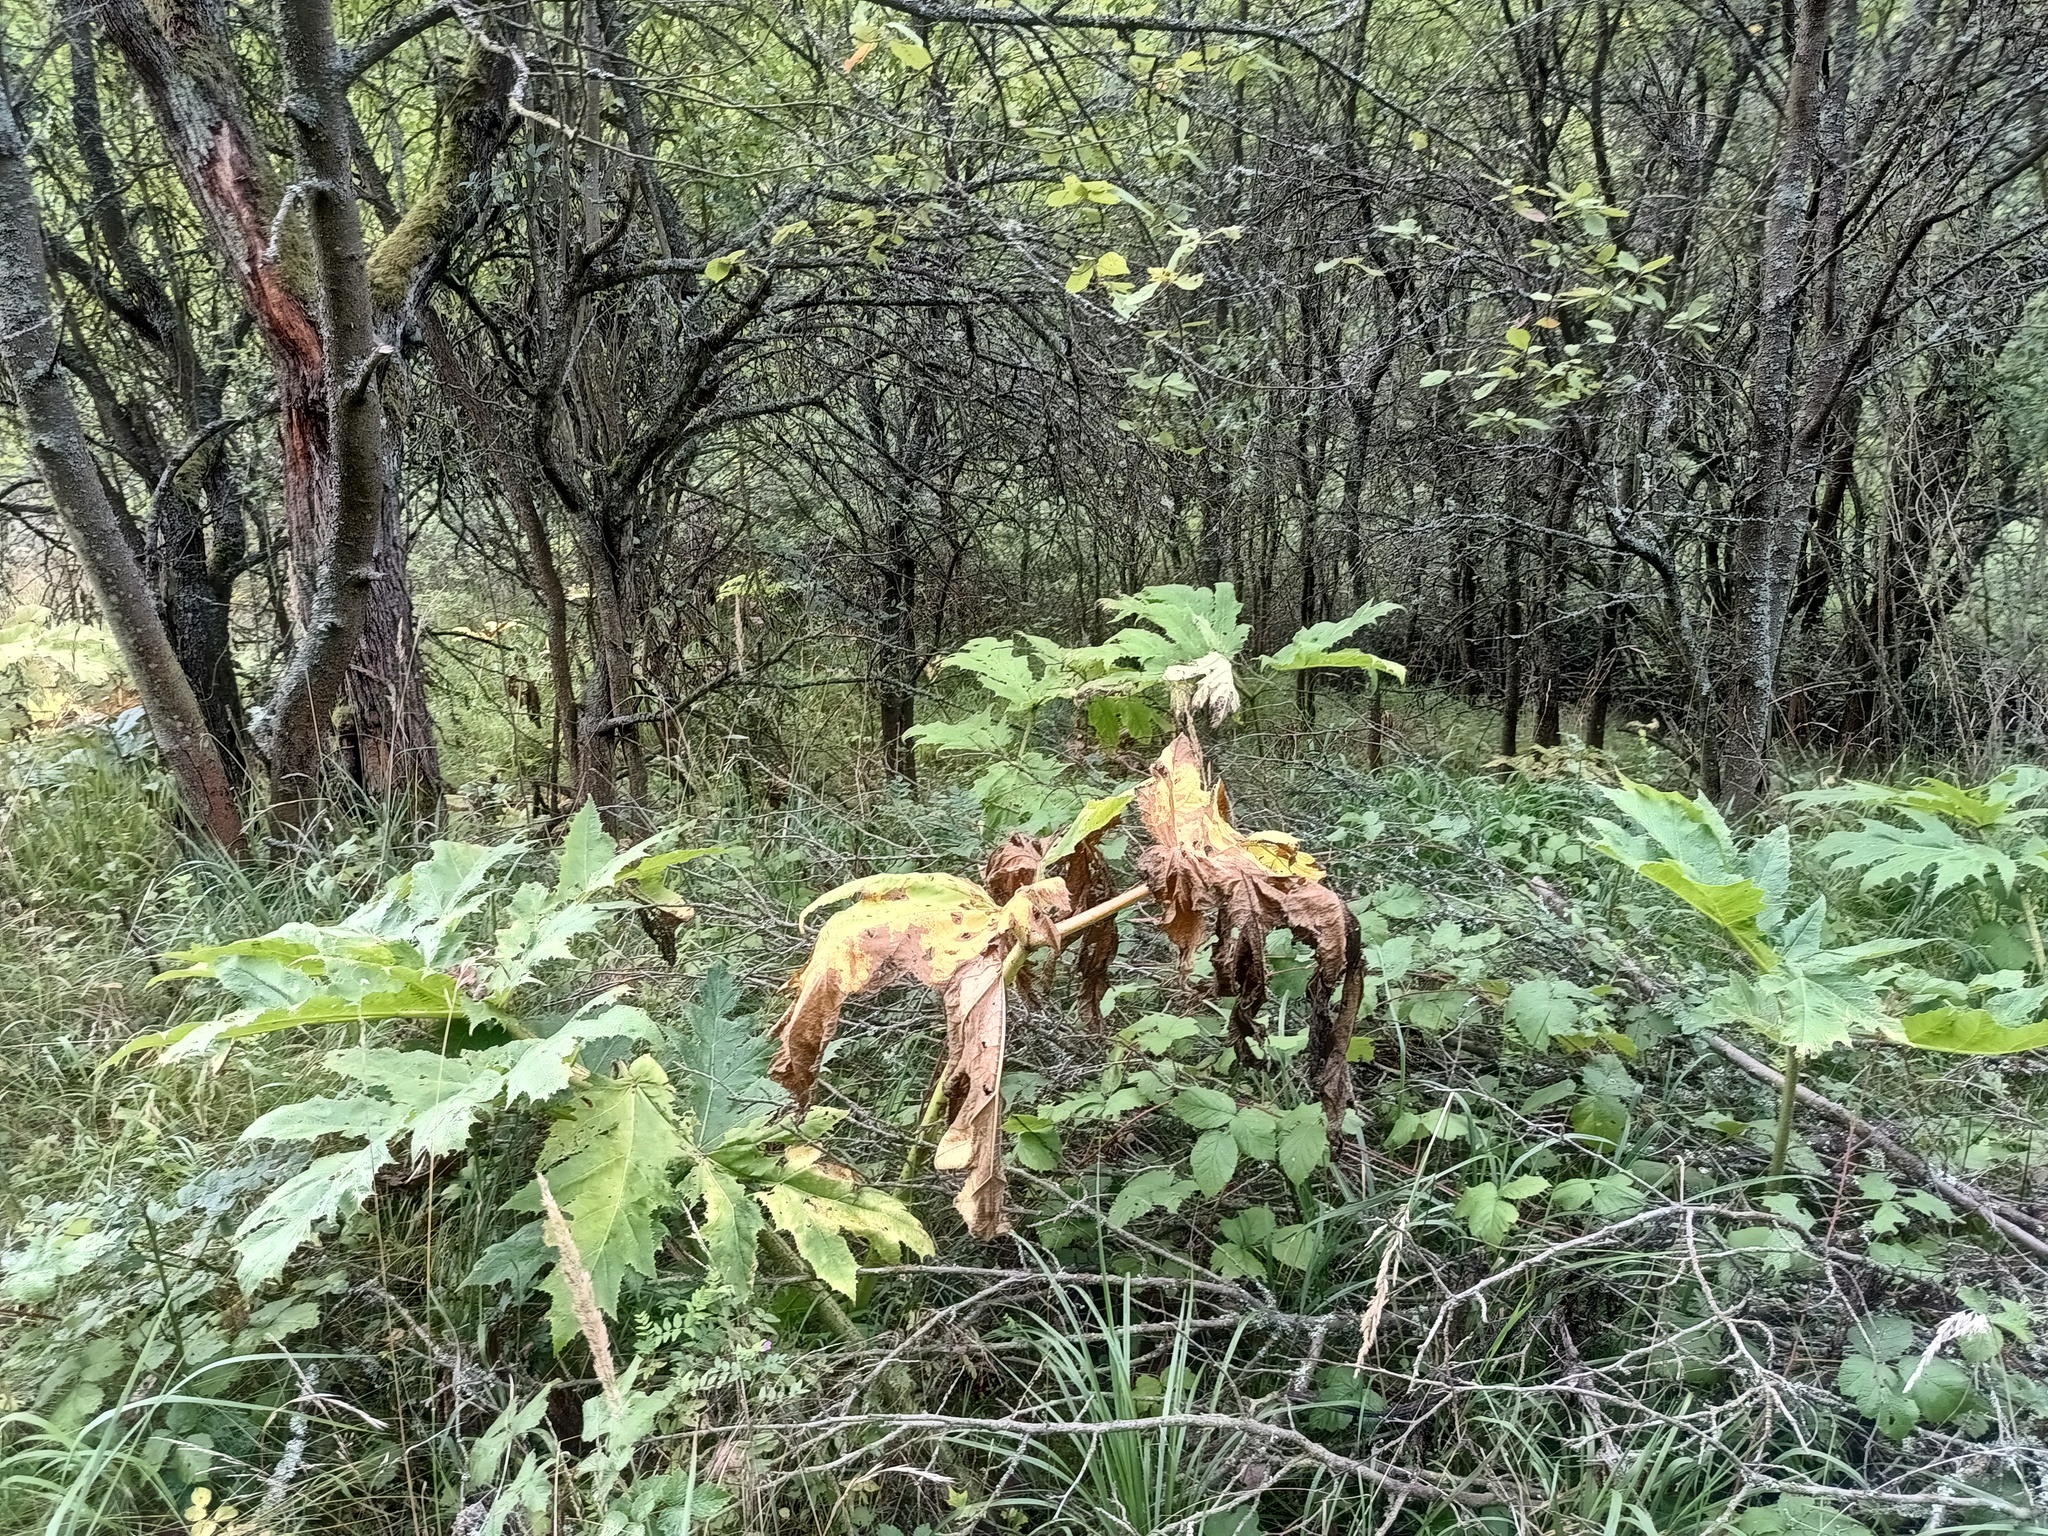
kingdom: Plantae
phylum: Tracheophyta
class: Magnoliopsida
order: Apiales
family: Apiaceae
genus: Heracleum
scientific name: Heracleum mantegazzianum
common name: Giant hogweed
